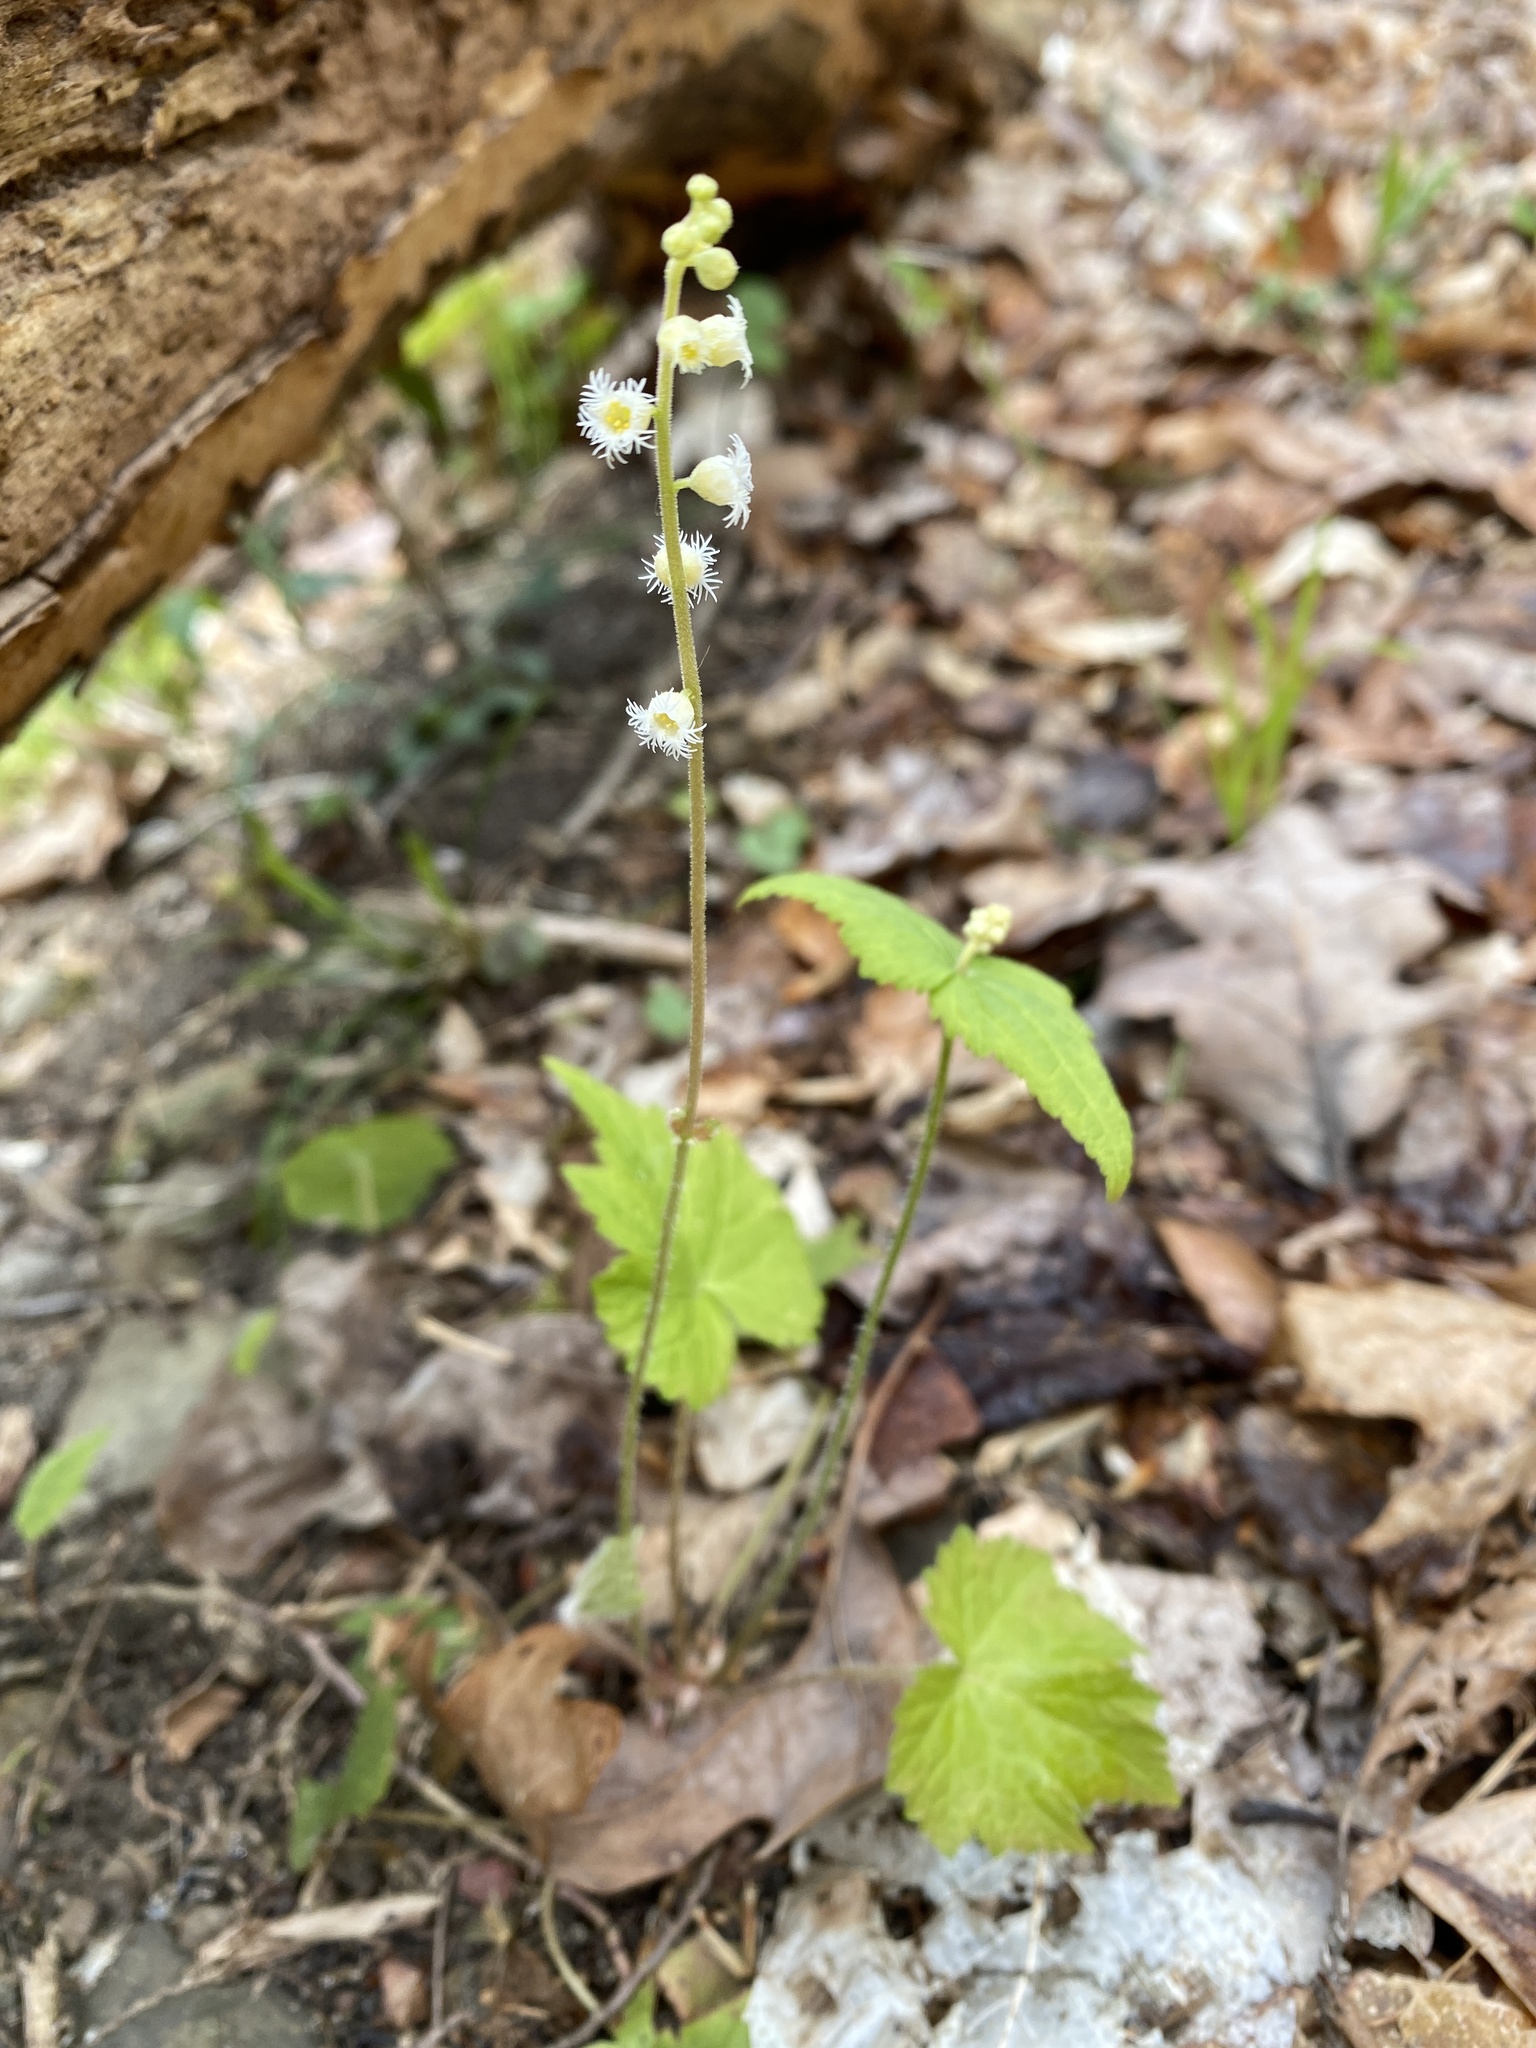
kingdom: Plantae
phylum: Tracheophyta
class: Magnoliopsida
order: Saxifragales
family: Saxifragaceae
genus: Mitella
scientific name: Mitella diphylla
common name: Coolwort
